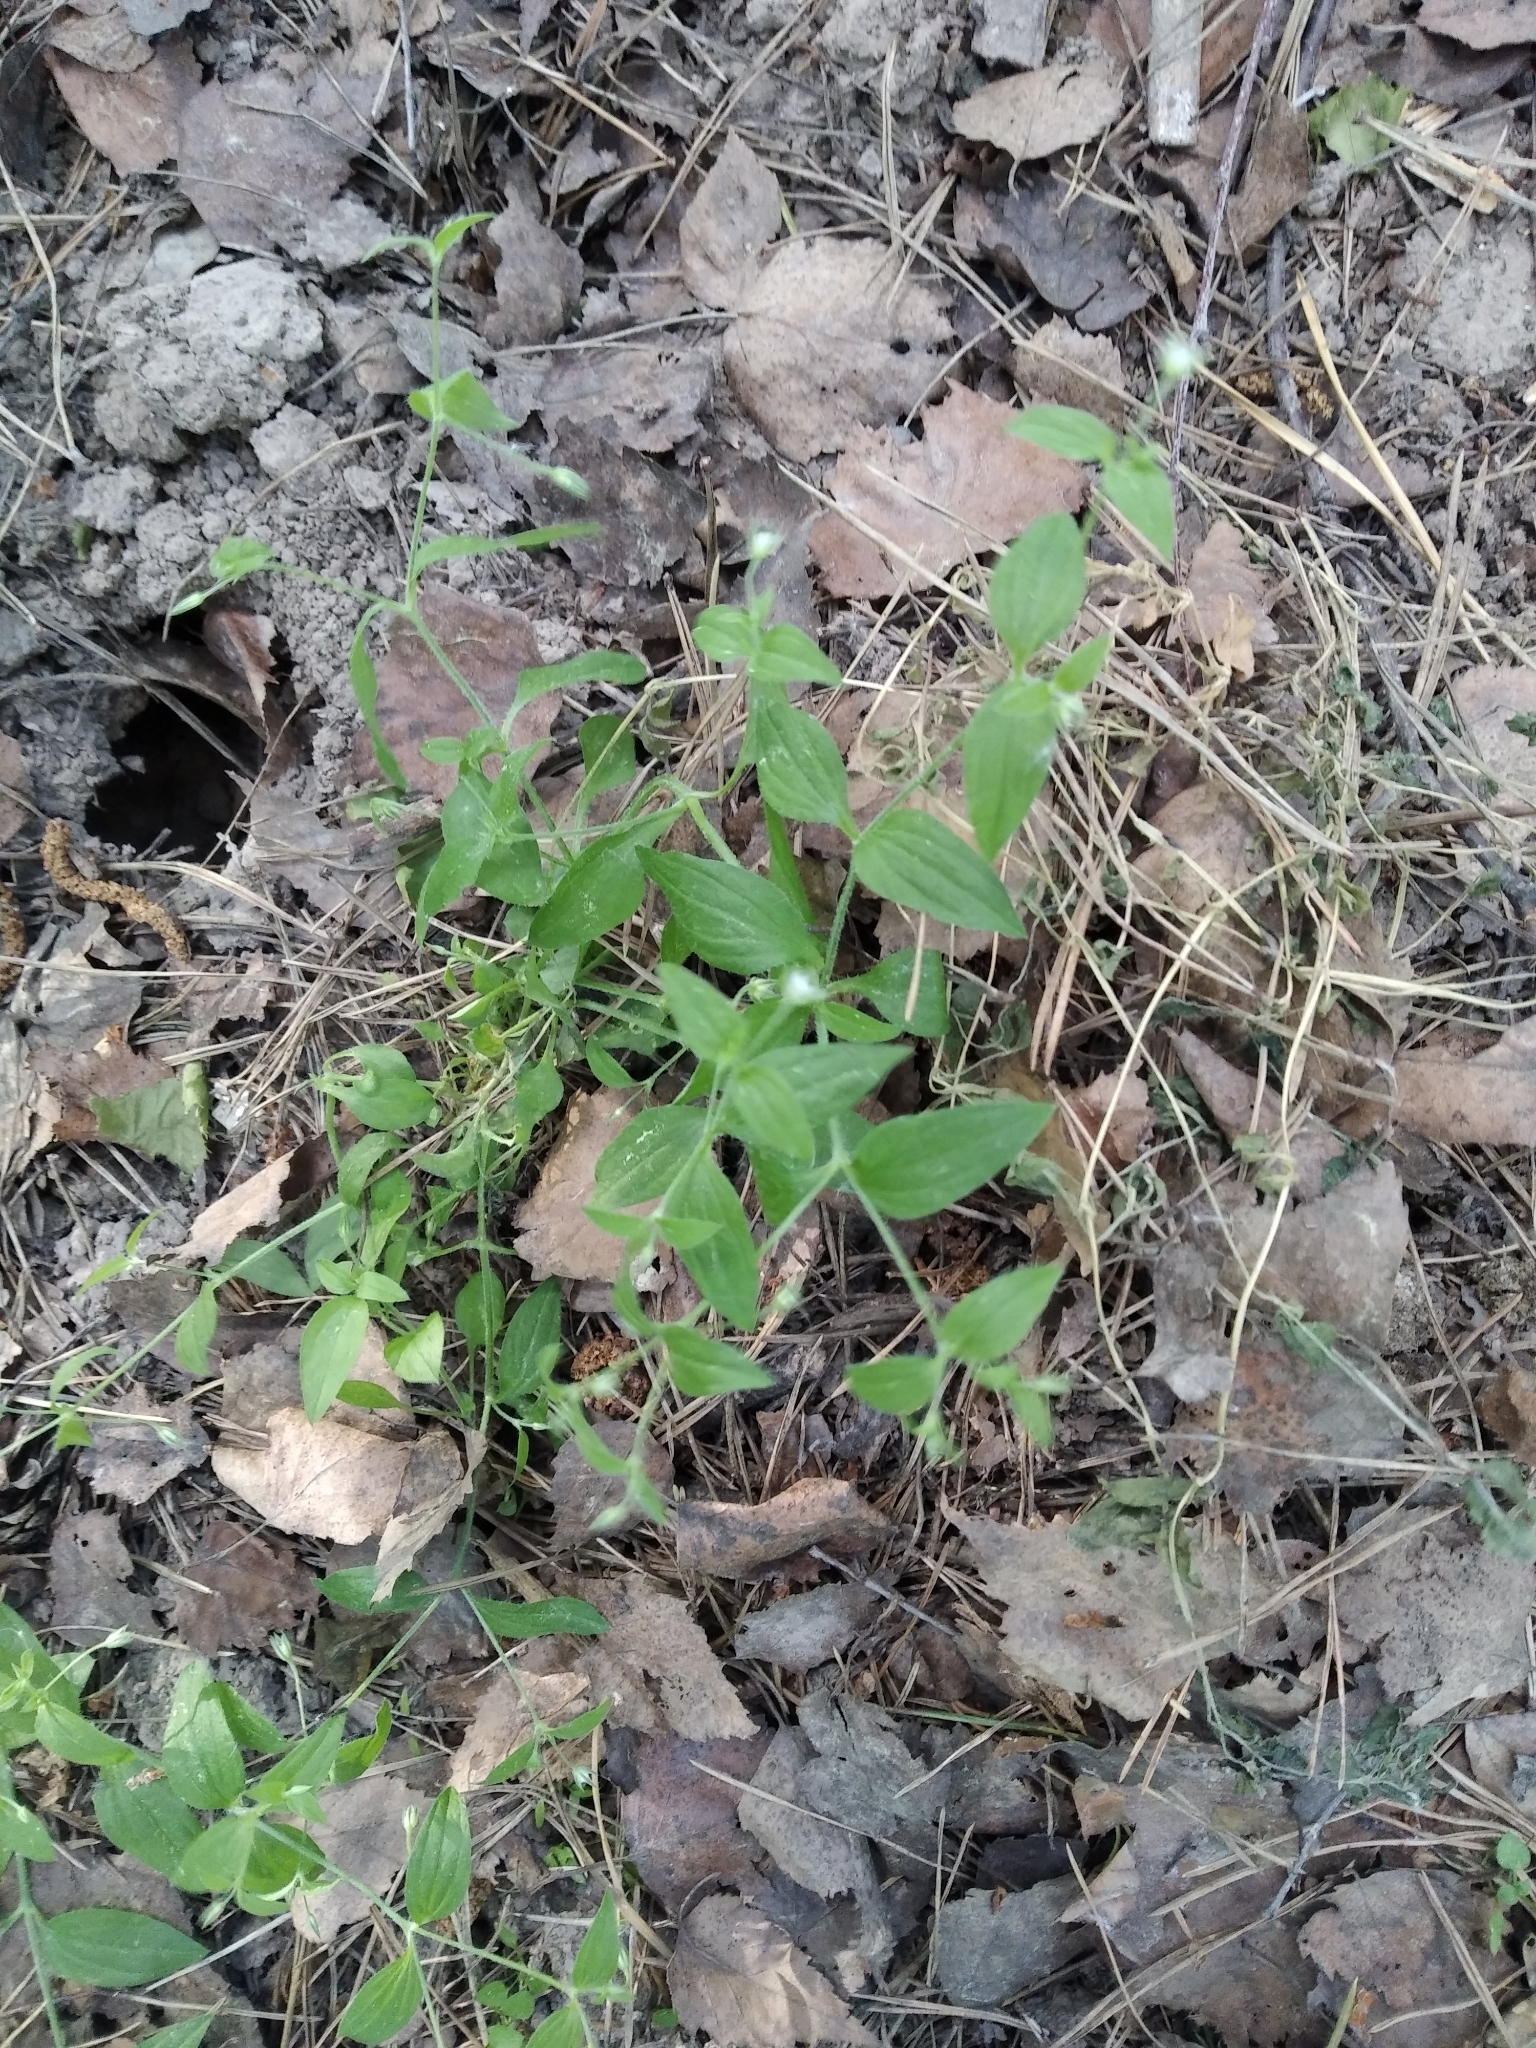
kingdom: Plantae
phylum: Tracheophyta
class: Magnoliopsida
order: Caryophyllales
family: Caryophyllaceae
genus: Moehringia
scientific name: Moehringia trinervia
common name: Three-nerved sandwort
